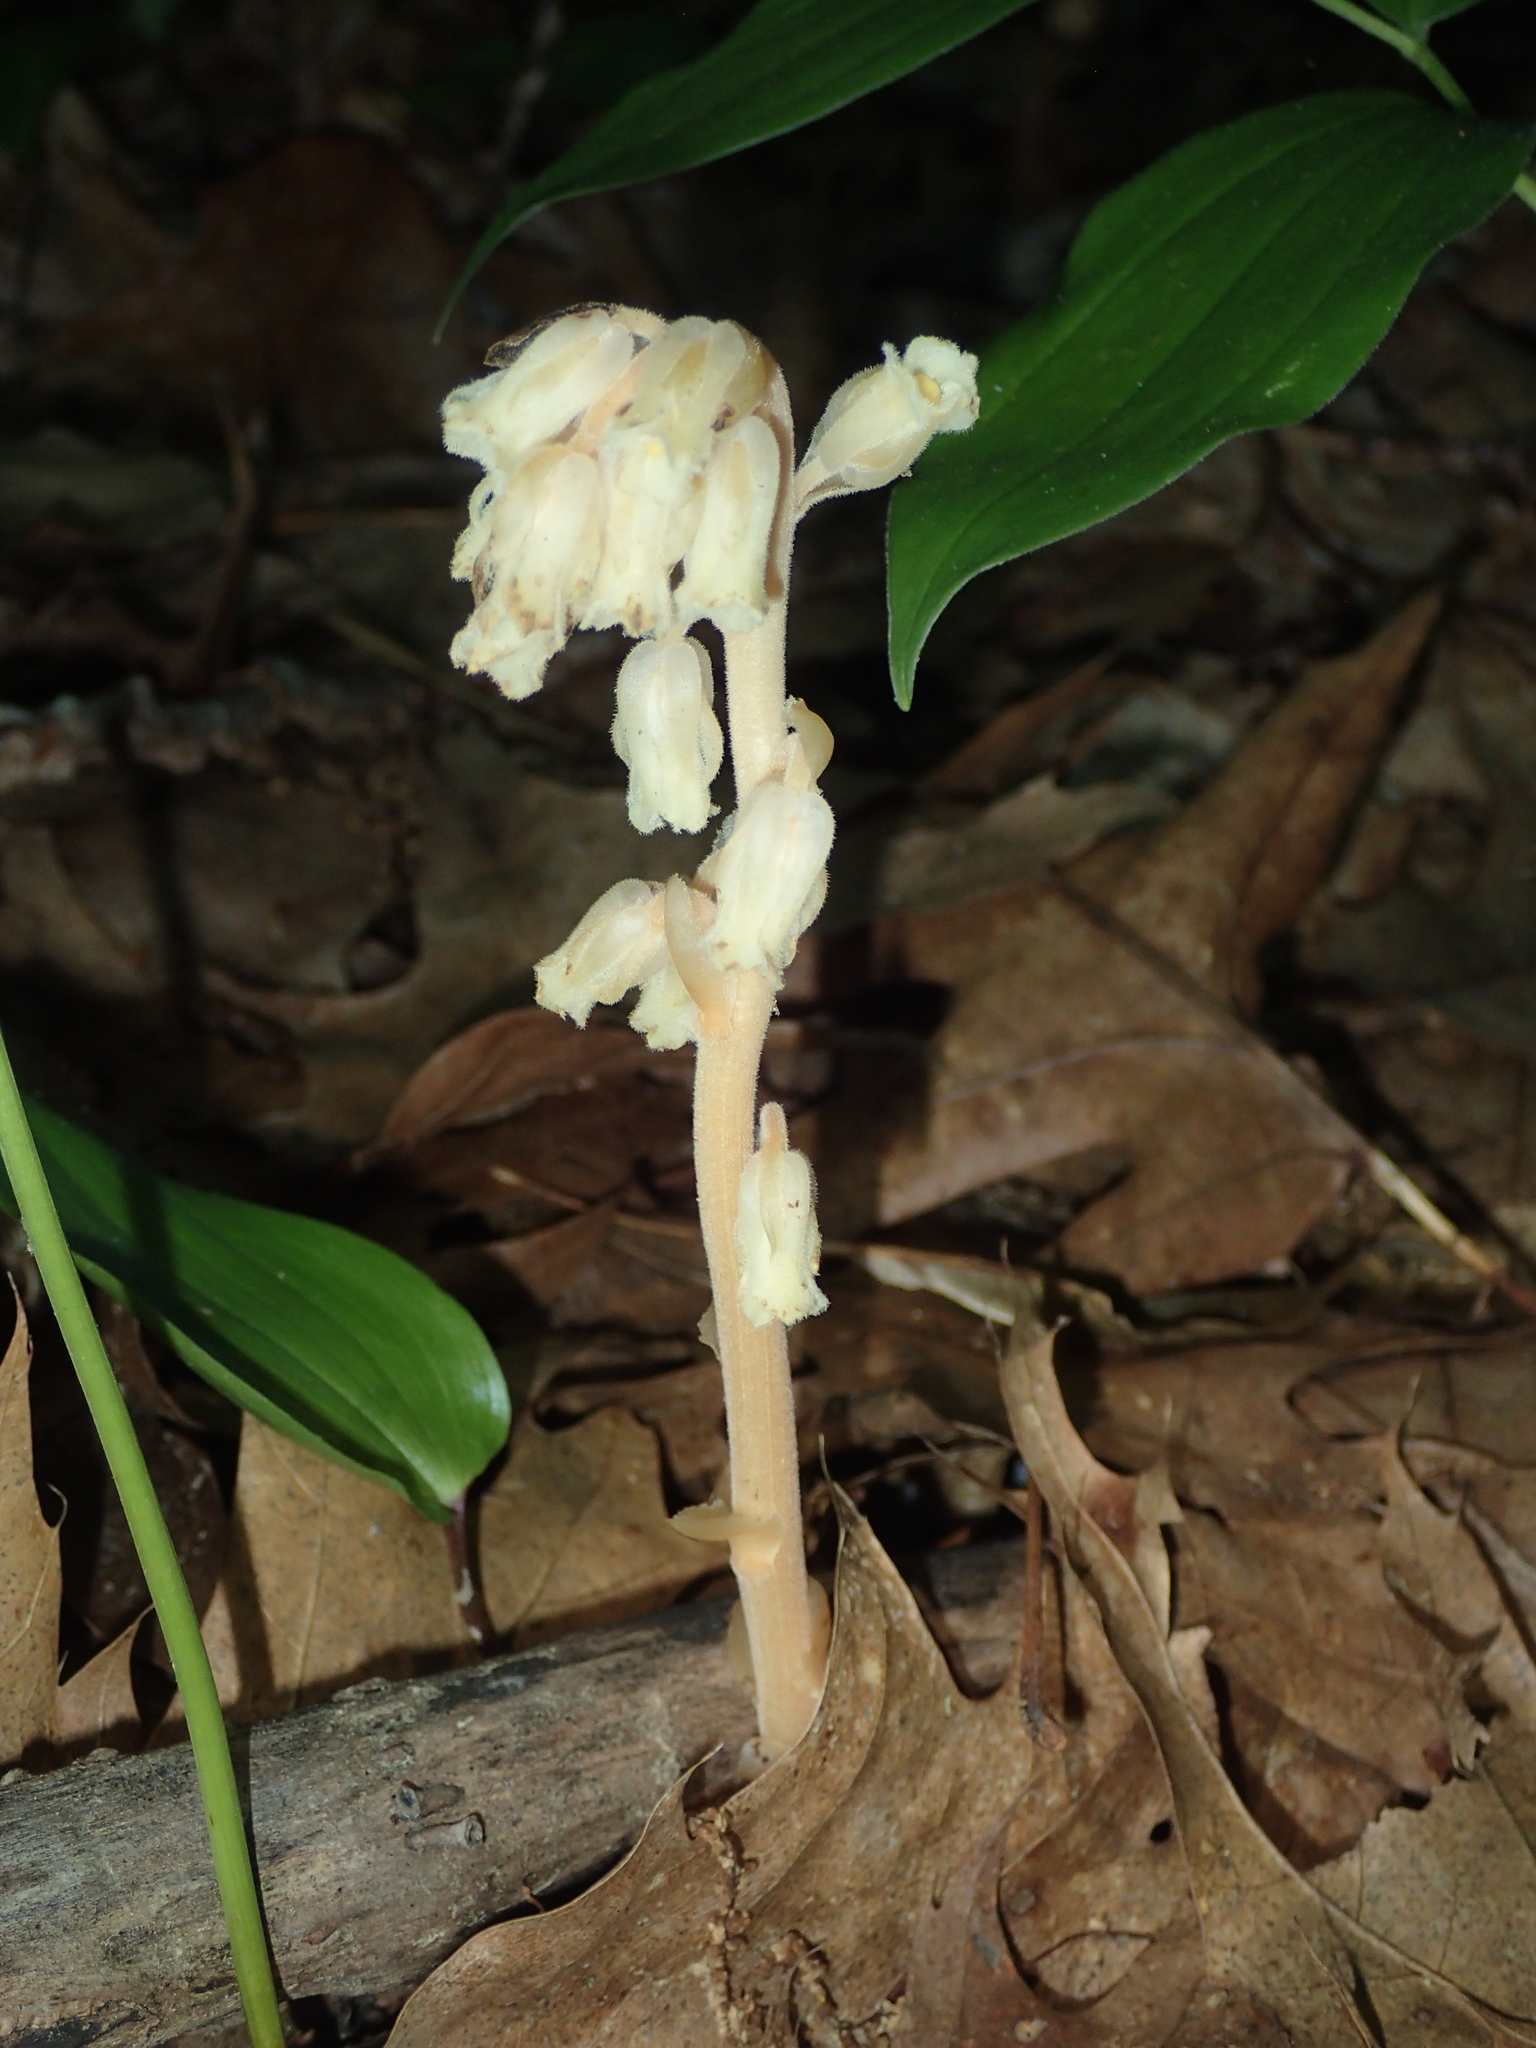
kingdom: Plantae
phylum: Tracheophyta
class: Magnoliopsida
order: Ericales
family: Ericaceae
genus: Hypopitys
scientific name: Hypopitys monotropa
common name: Yellow bird's-nest
